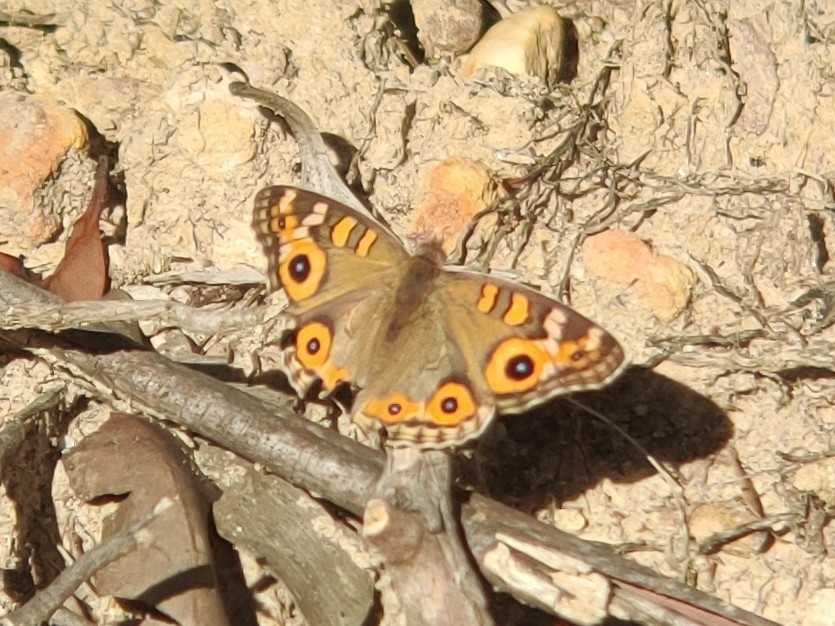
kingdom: Animalia
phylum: Arthropoda
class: Insecta
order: Lepidoptera
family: Nymphalidae
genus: Junonia
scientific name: Junonia villida
